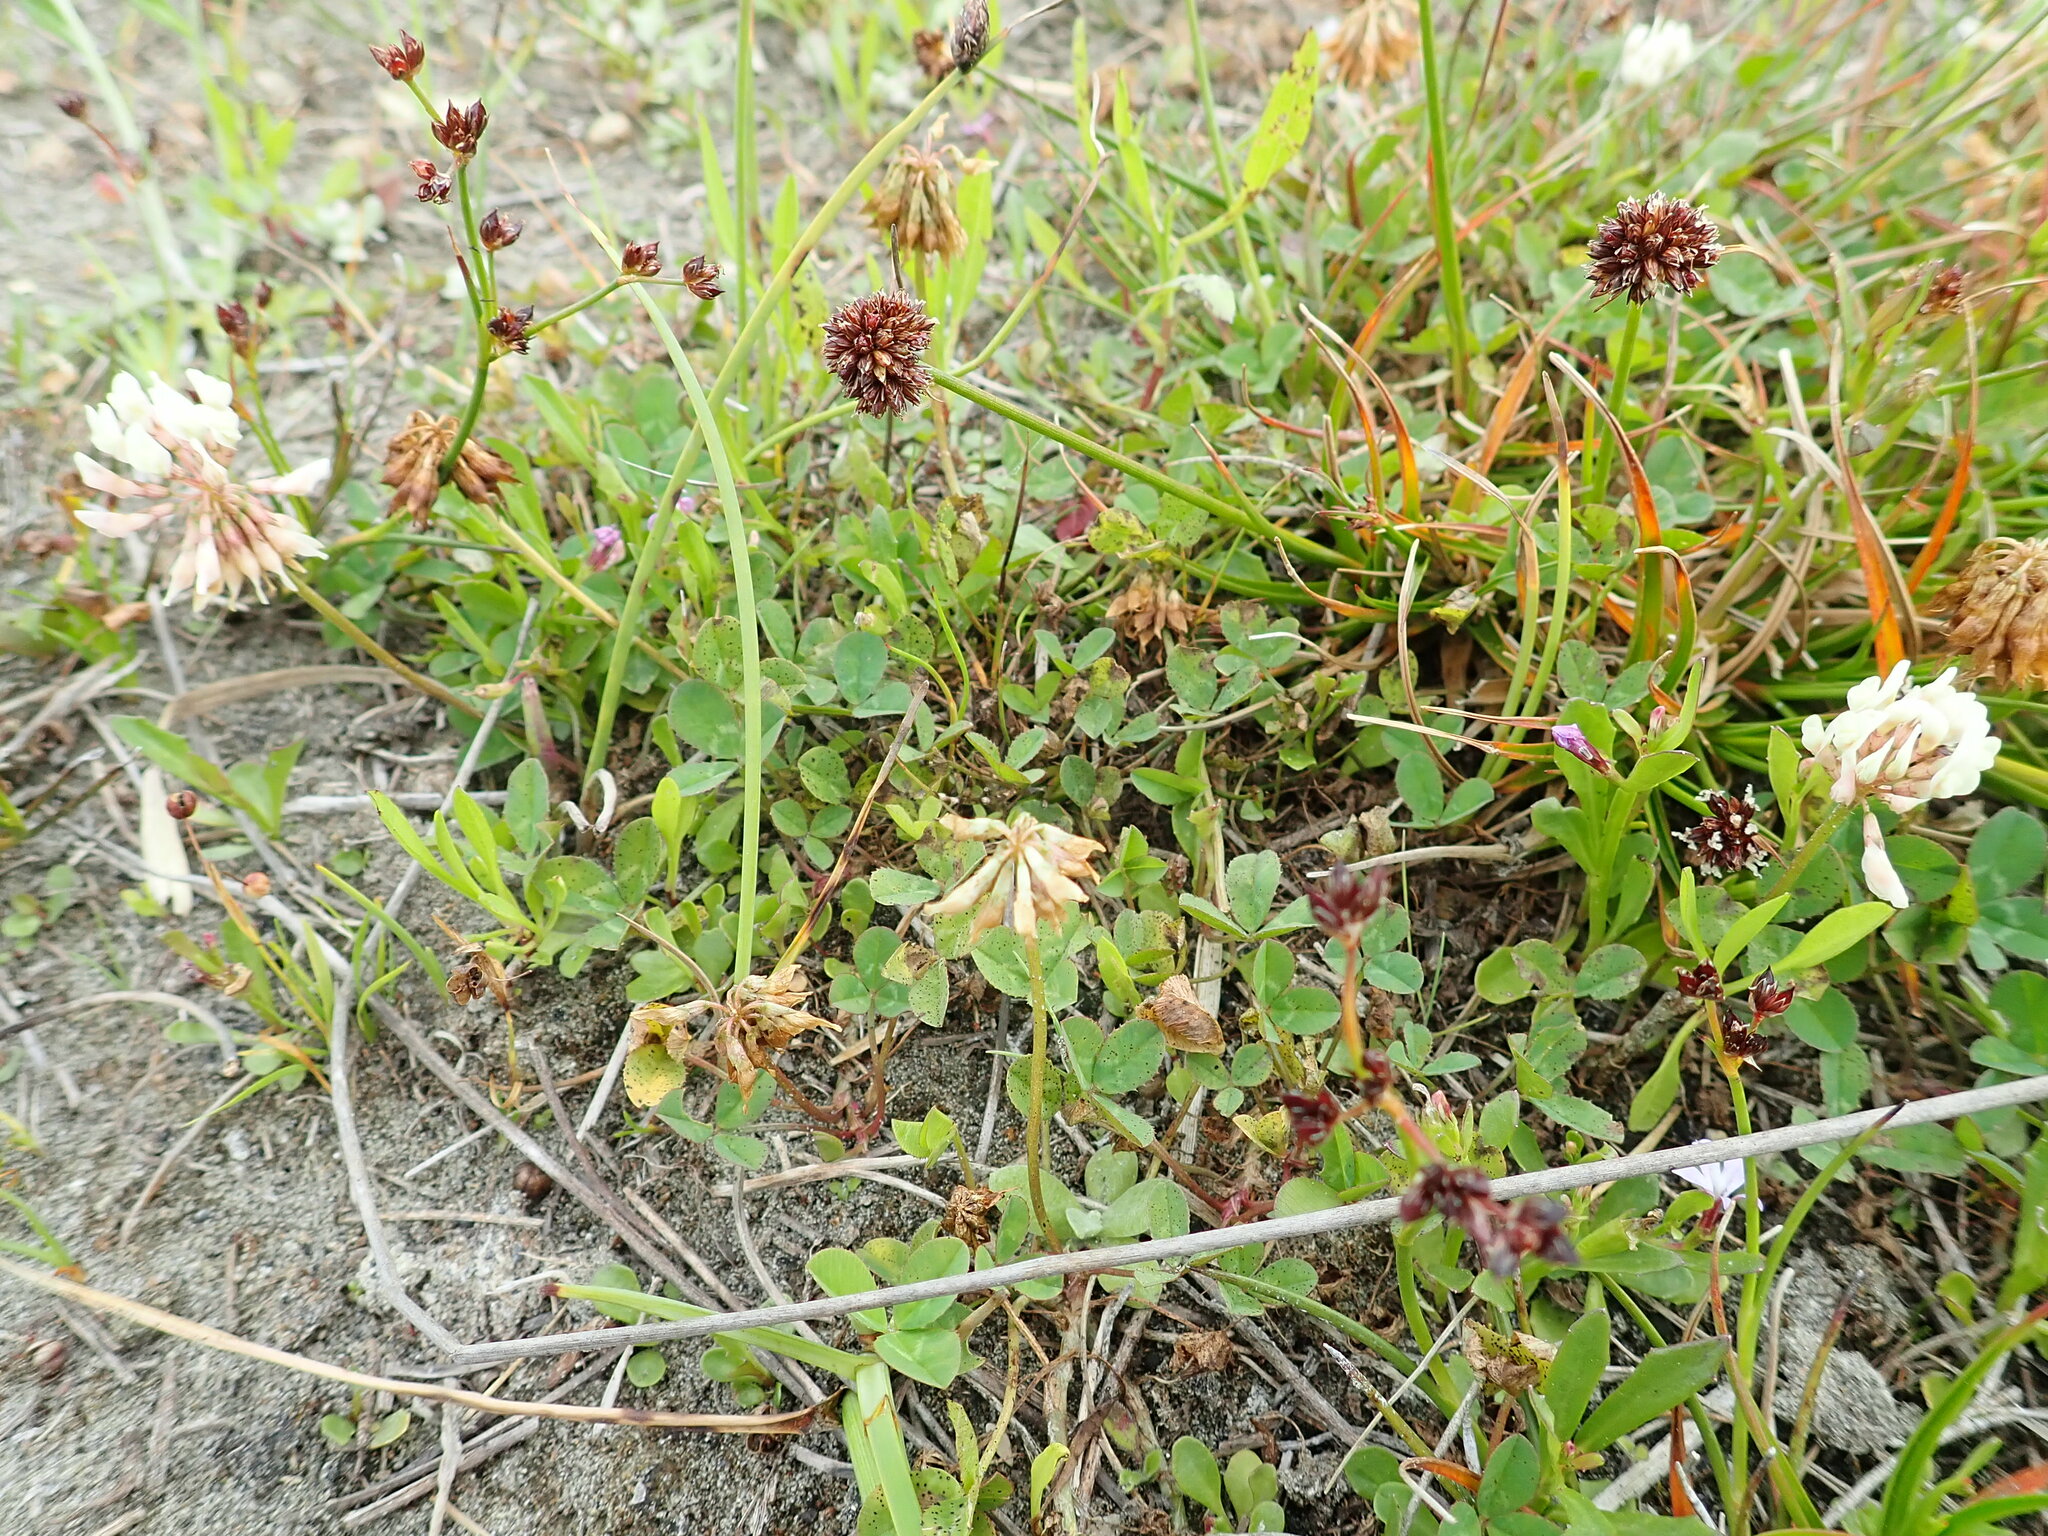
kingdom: Plantae
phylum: Tracheophyta
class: Magnoliopsida
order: Fabales
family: Fabaceae
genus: Trifolium
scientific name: Trifolium repens
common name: White clover
